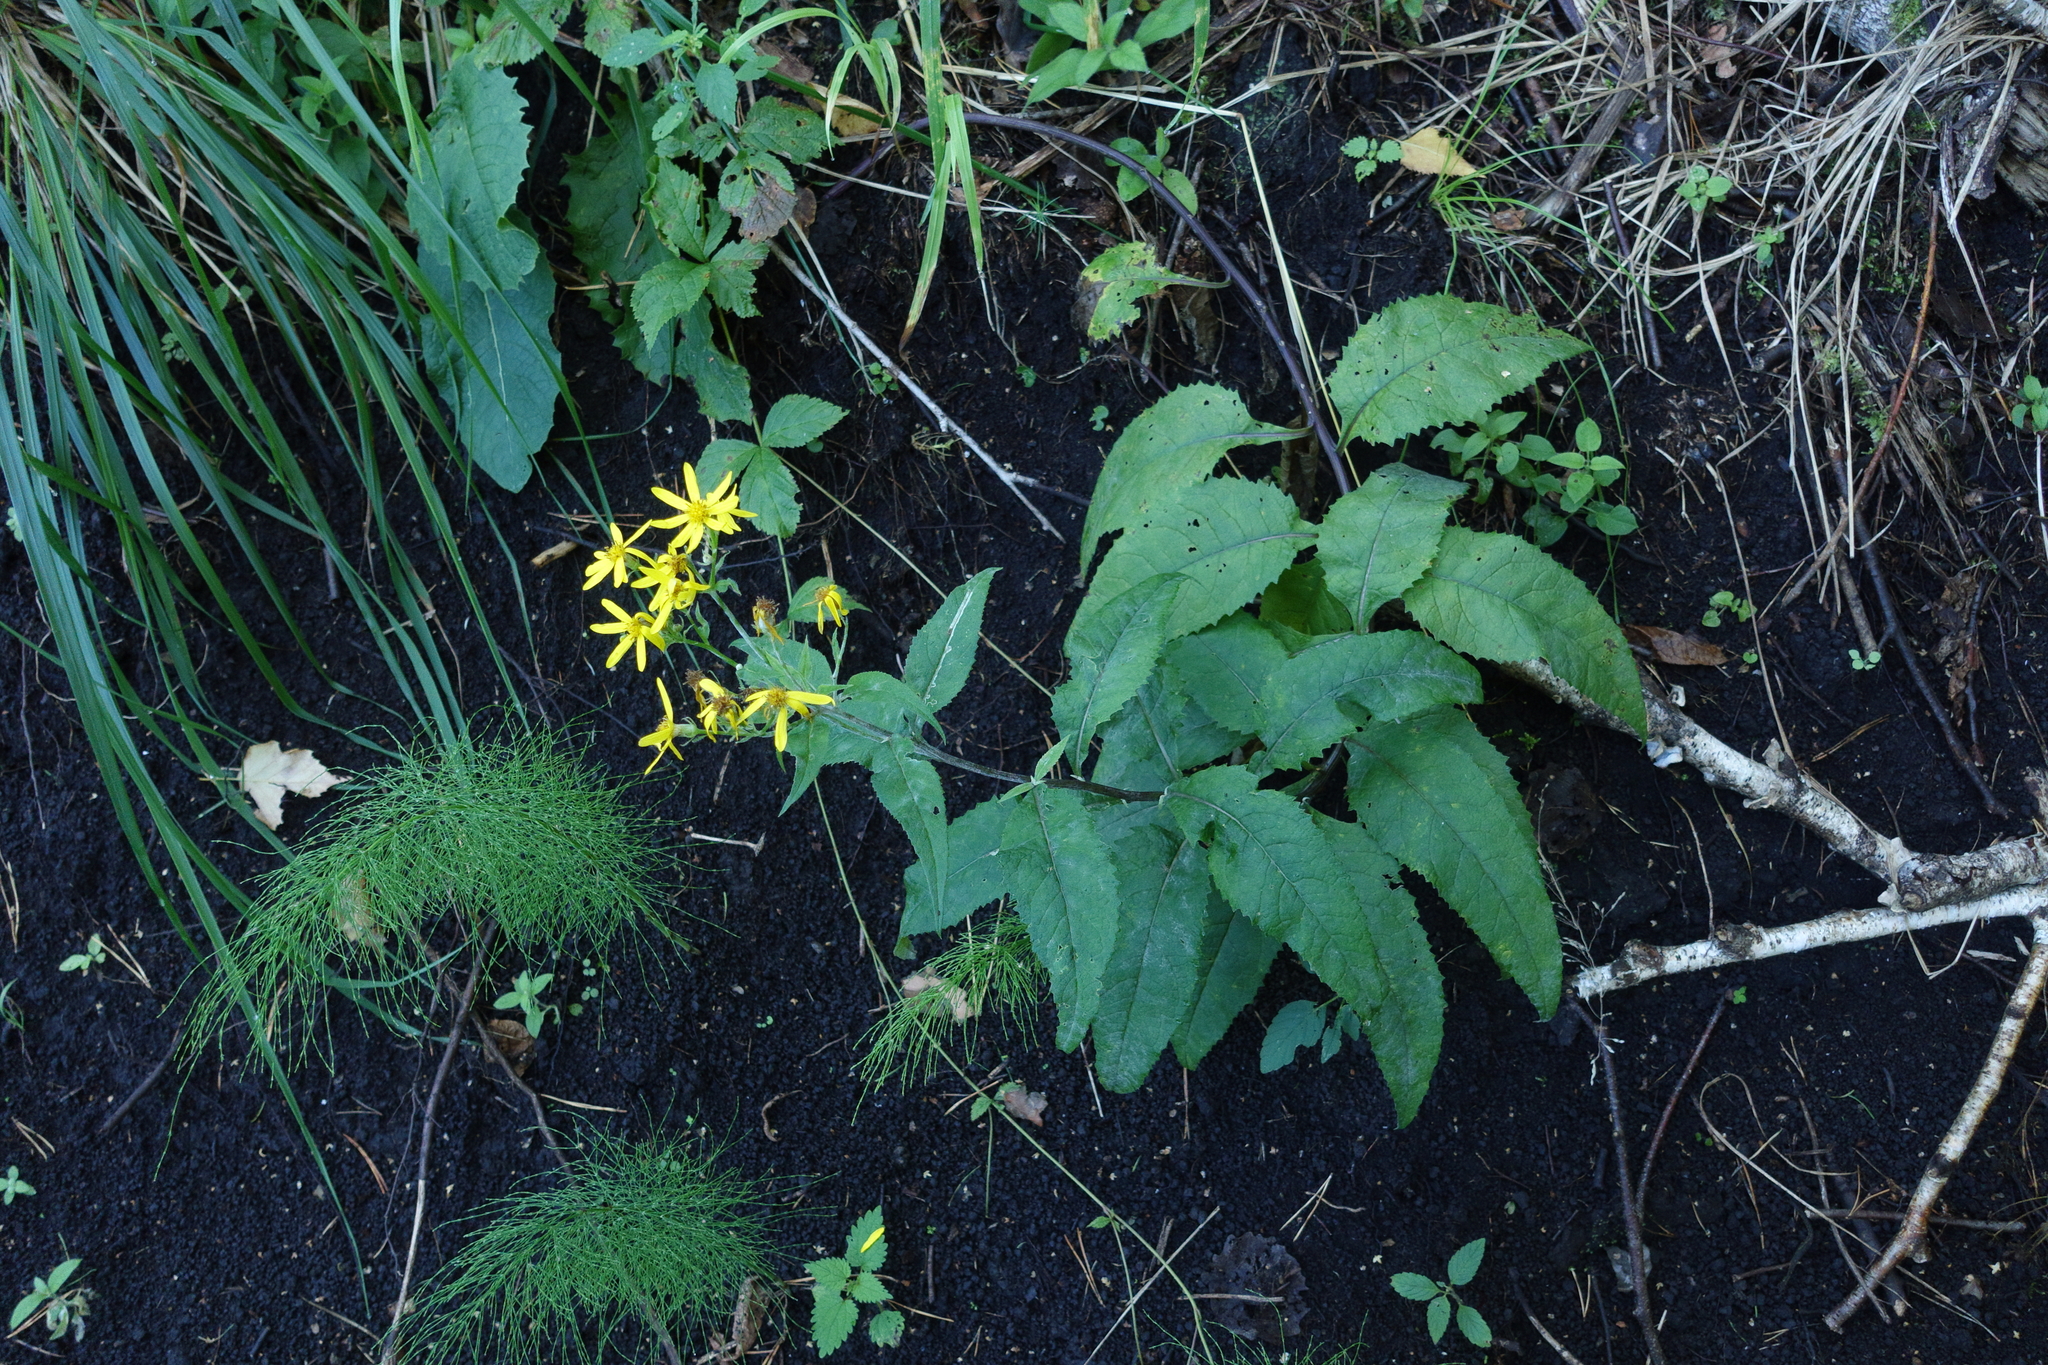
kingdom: Plantae
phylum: Tracheophyta
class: Magnoliopsida
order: Asterales
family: Asteraceae
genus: Senecio
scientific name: Senecio nemorensis
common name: Alpine ragwort
